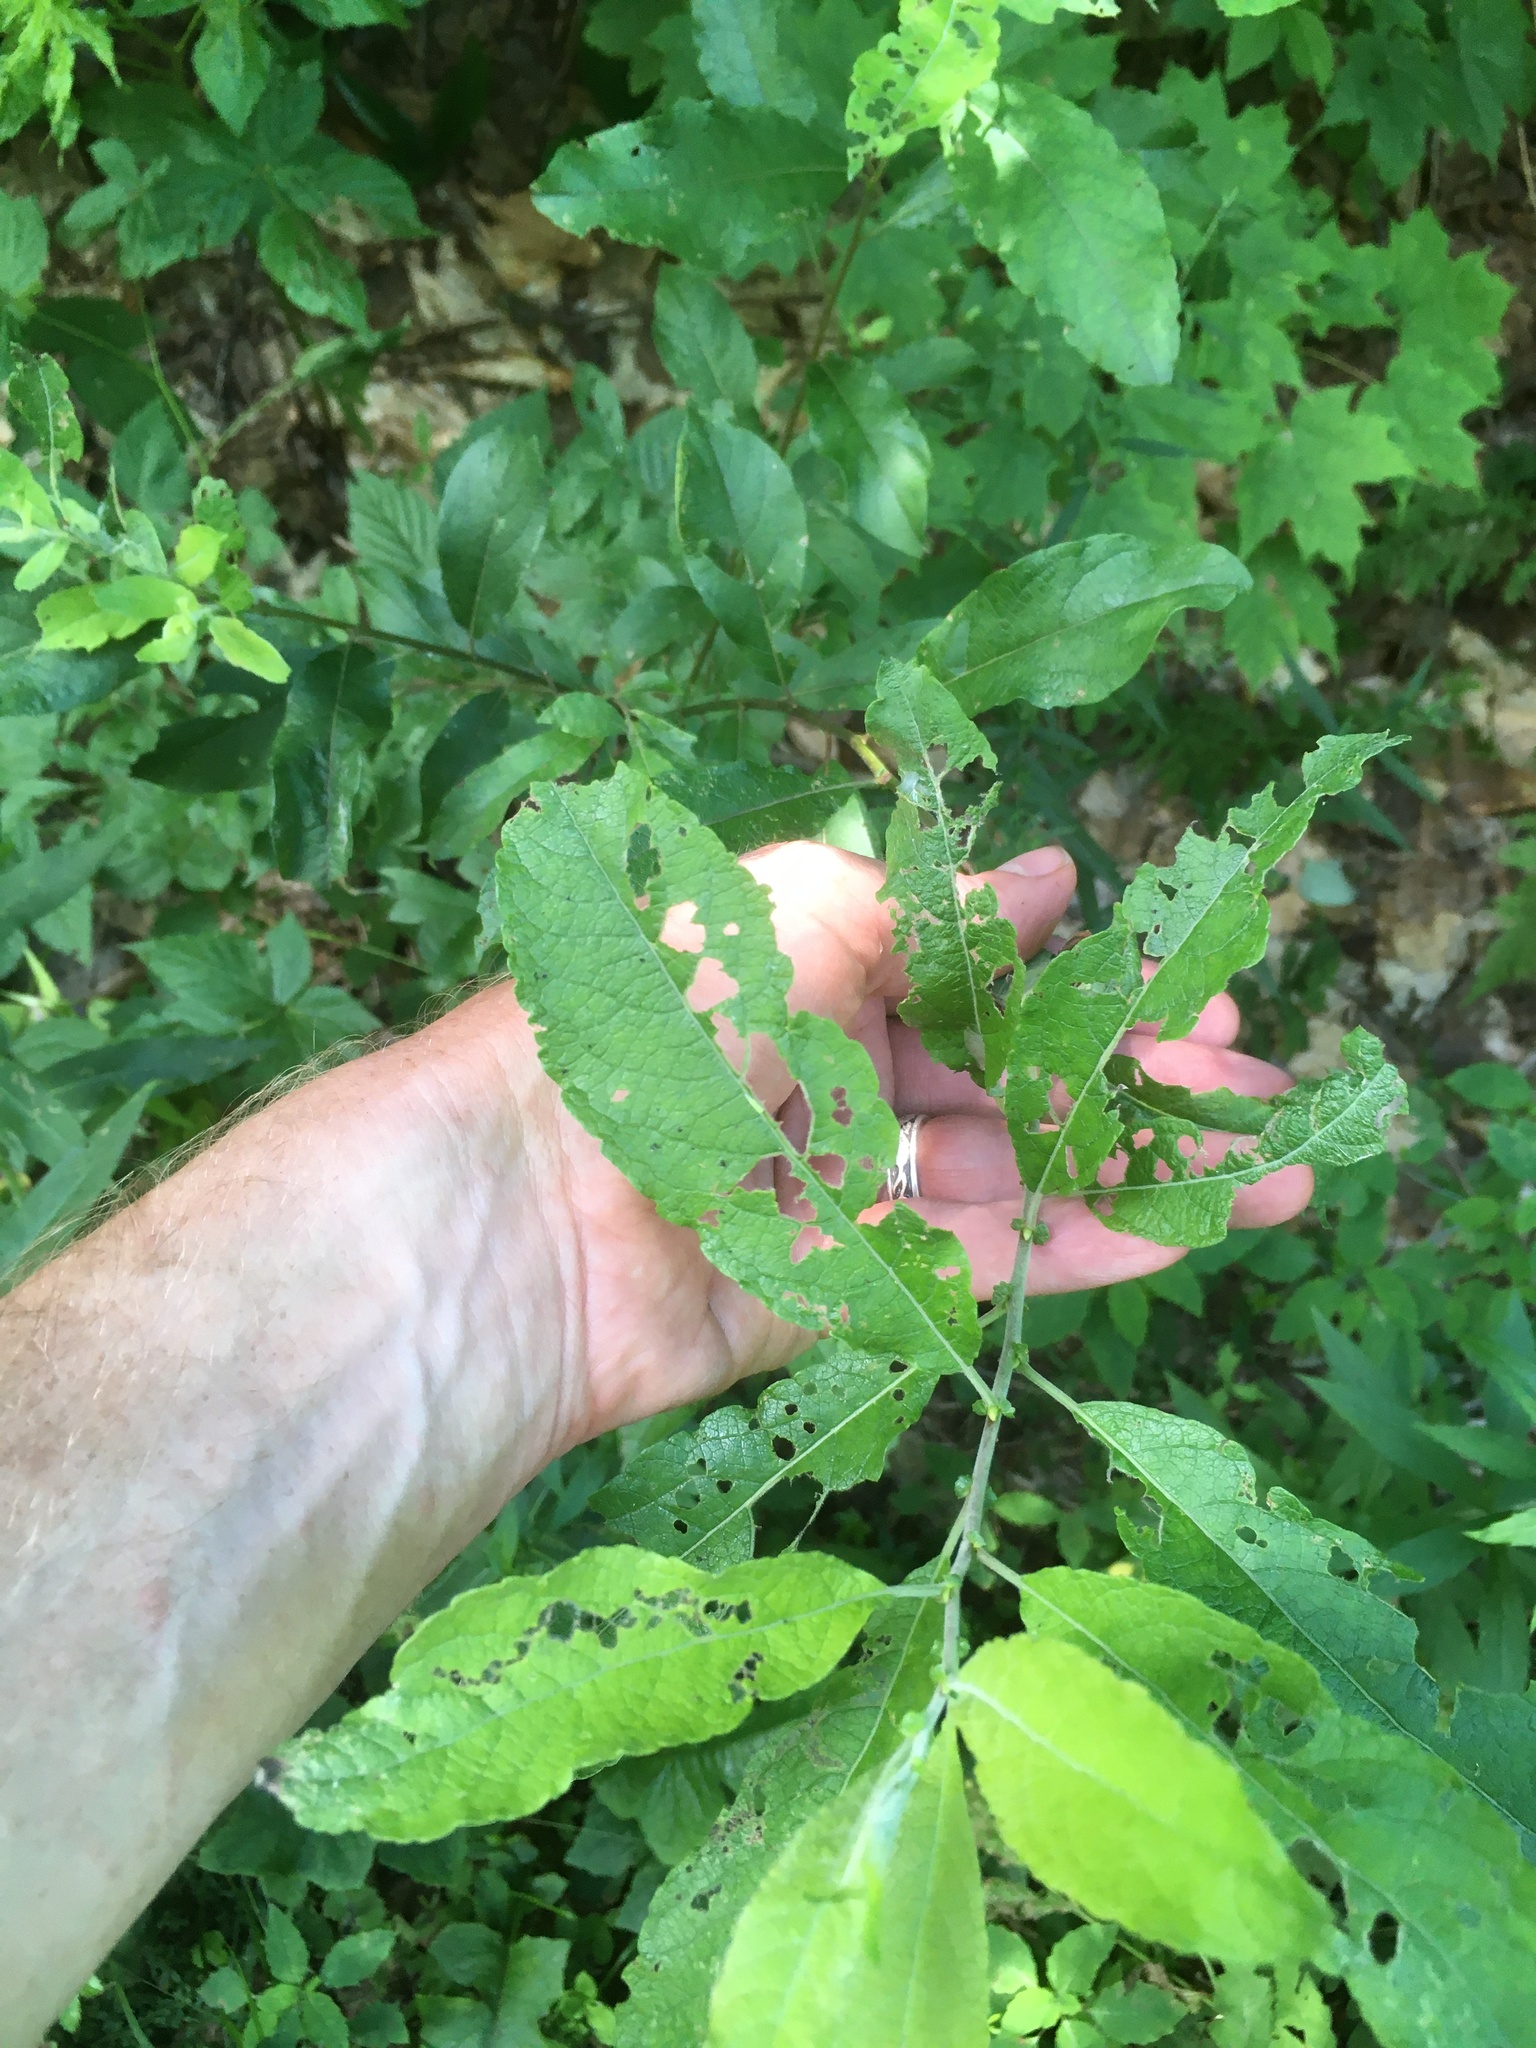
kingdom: Plantae
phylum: Tracheophyta
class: Magnoliopsida
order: Malpighiales
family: Salicaceae
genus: Salix
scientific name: Salix bebbiana
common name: Bebb's willow
